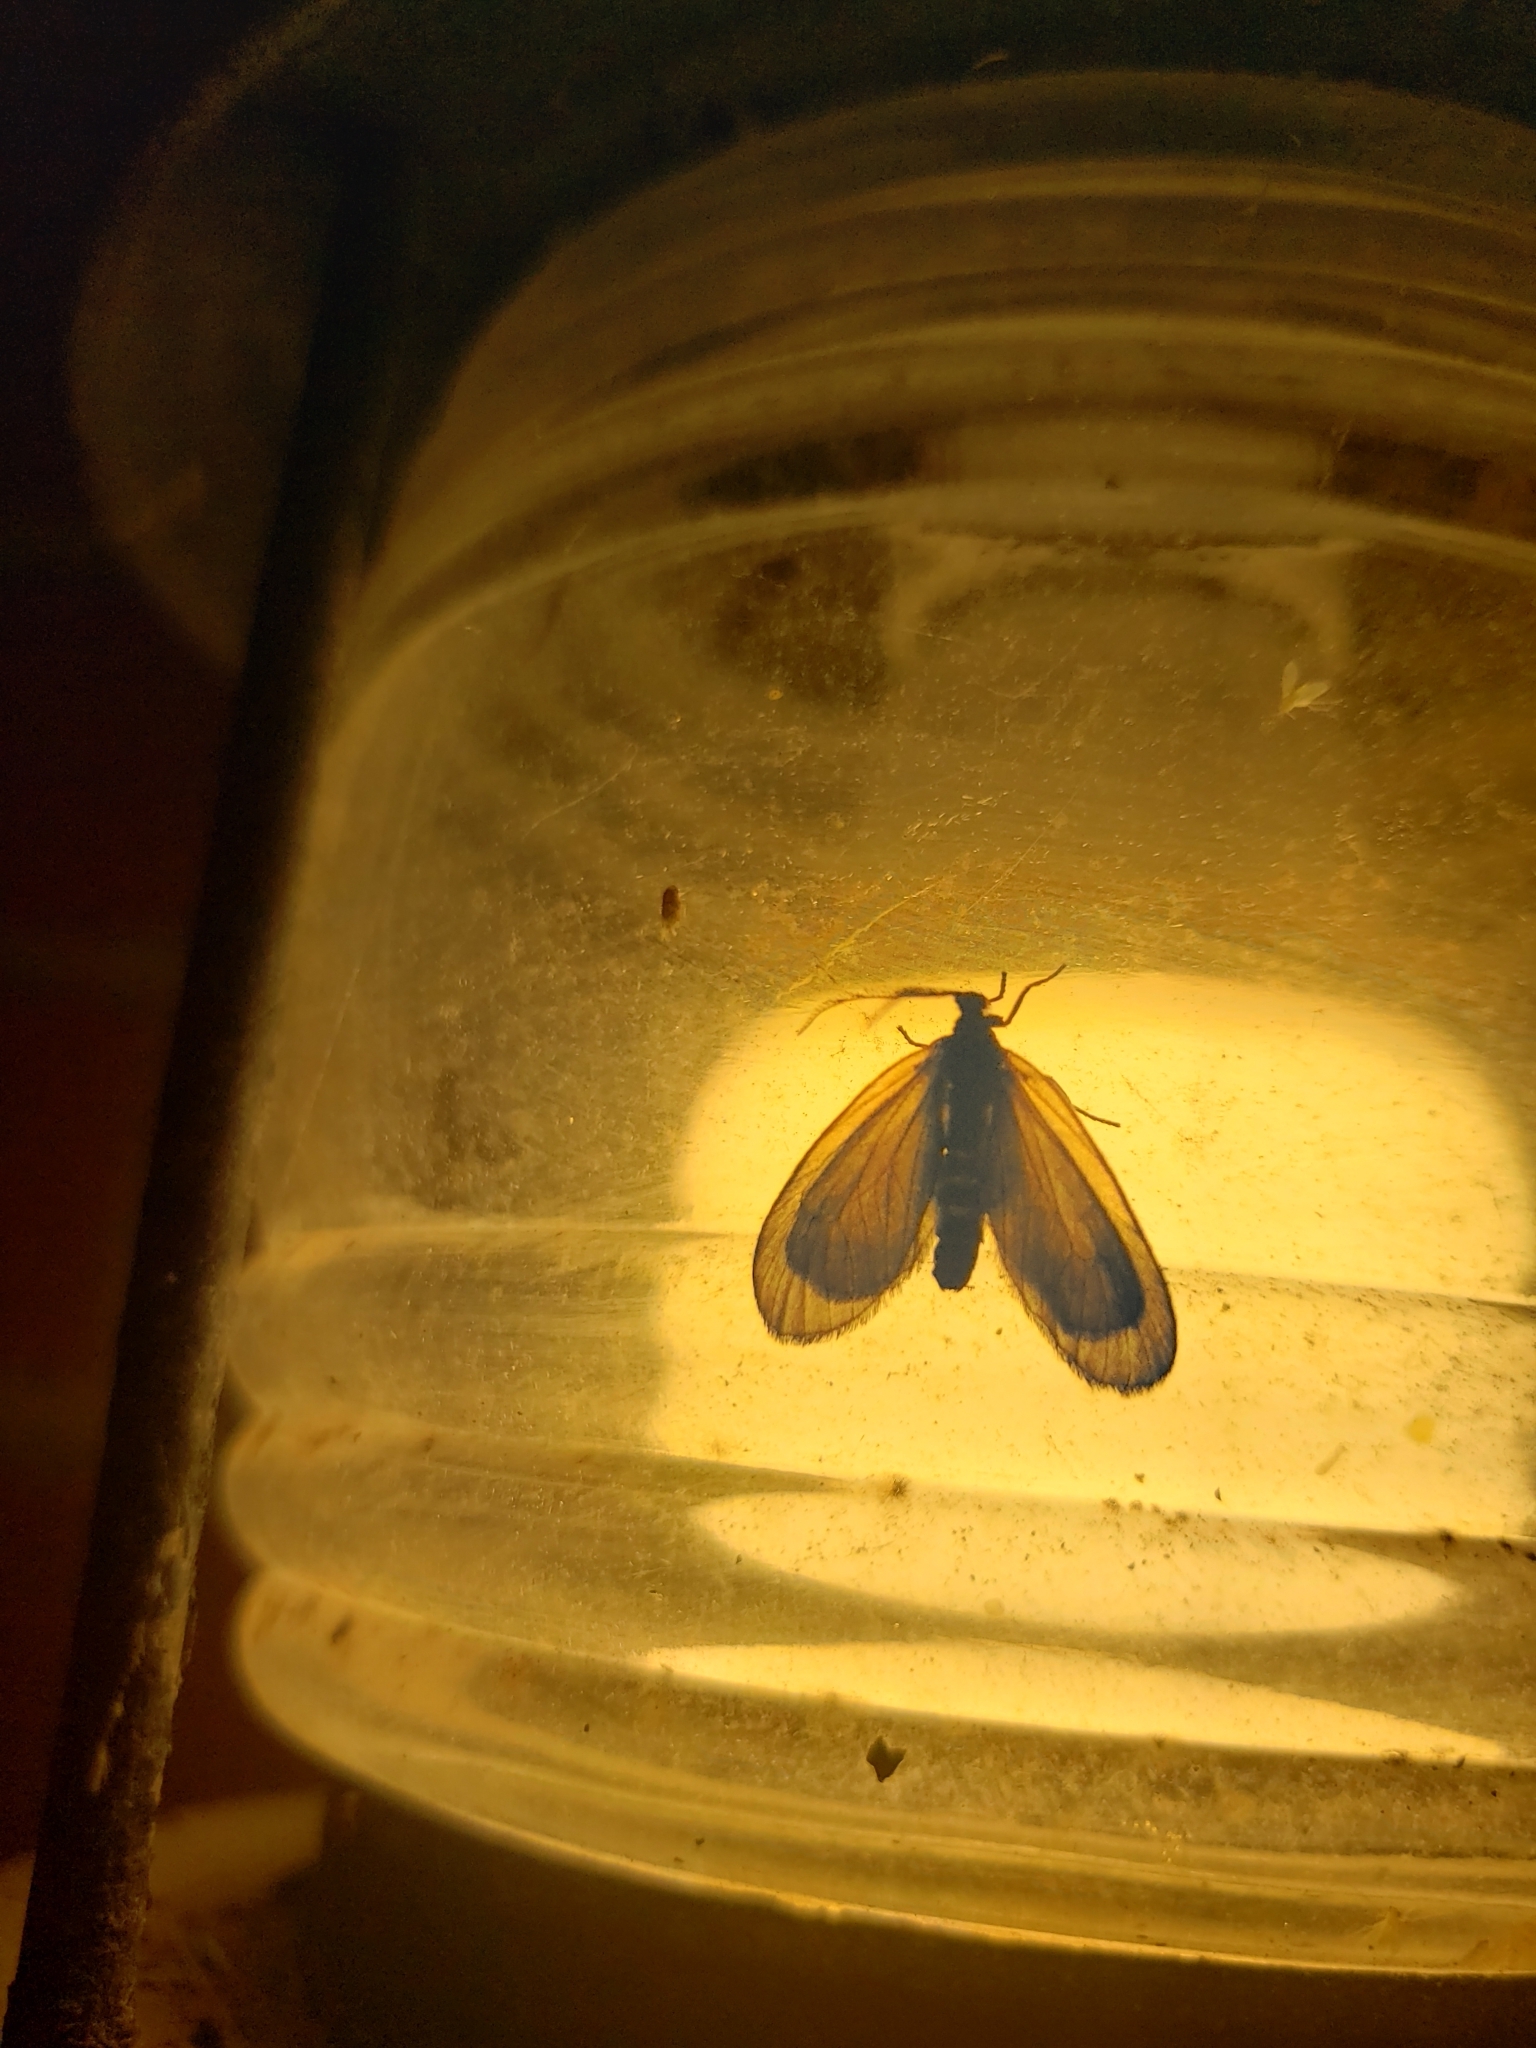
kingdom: Animalia
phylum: Arthropoda
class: Insecta
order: Lepidoptera
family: Zygaenidae
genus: Malthaca
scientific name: Malthaca dimidiata
